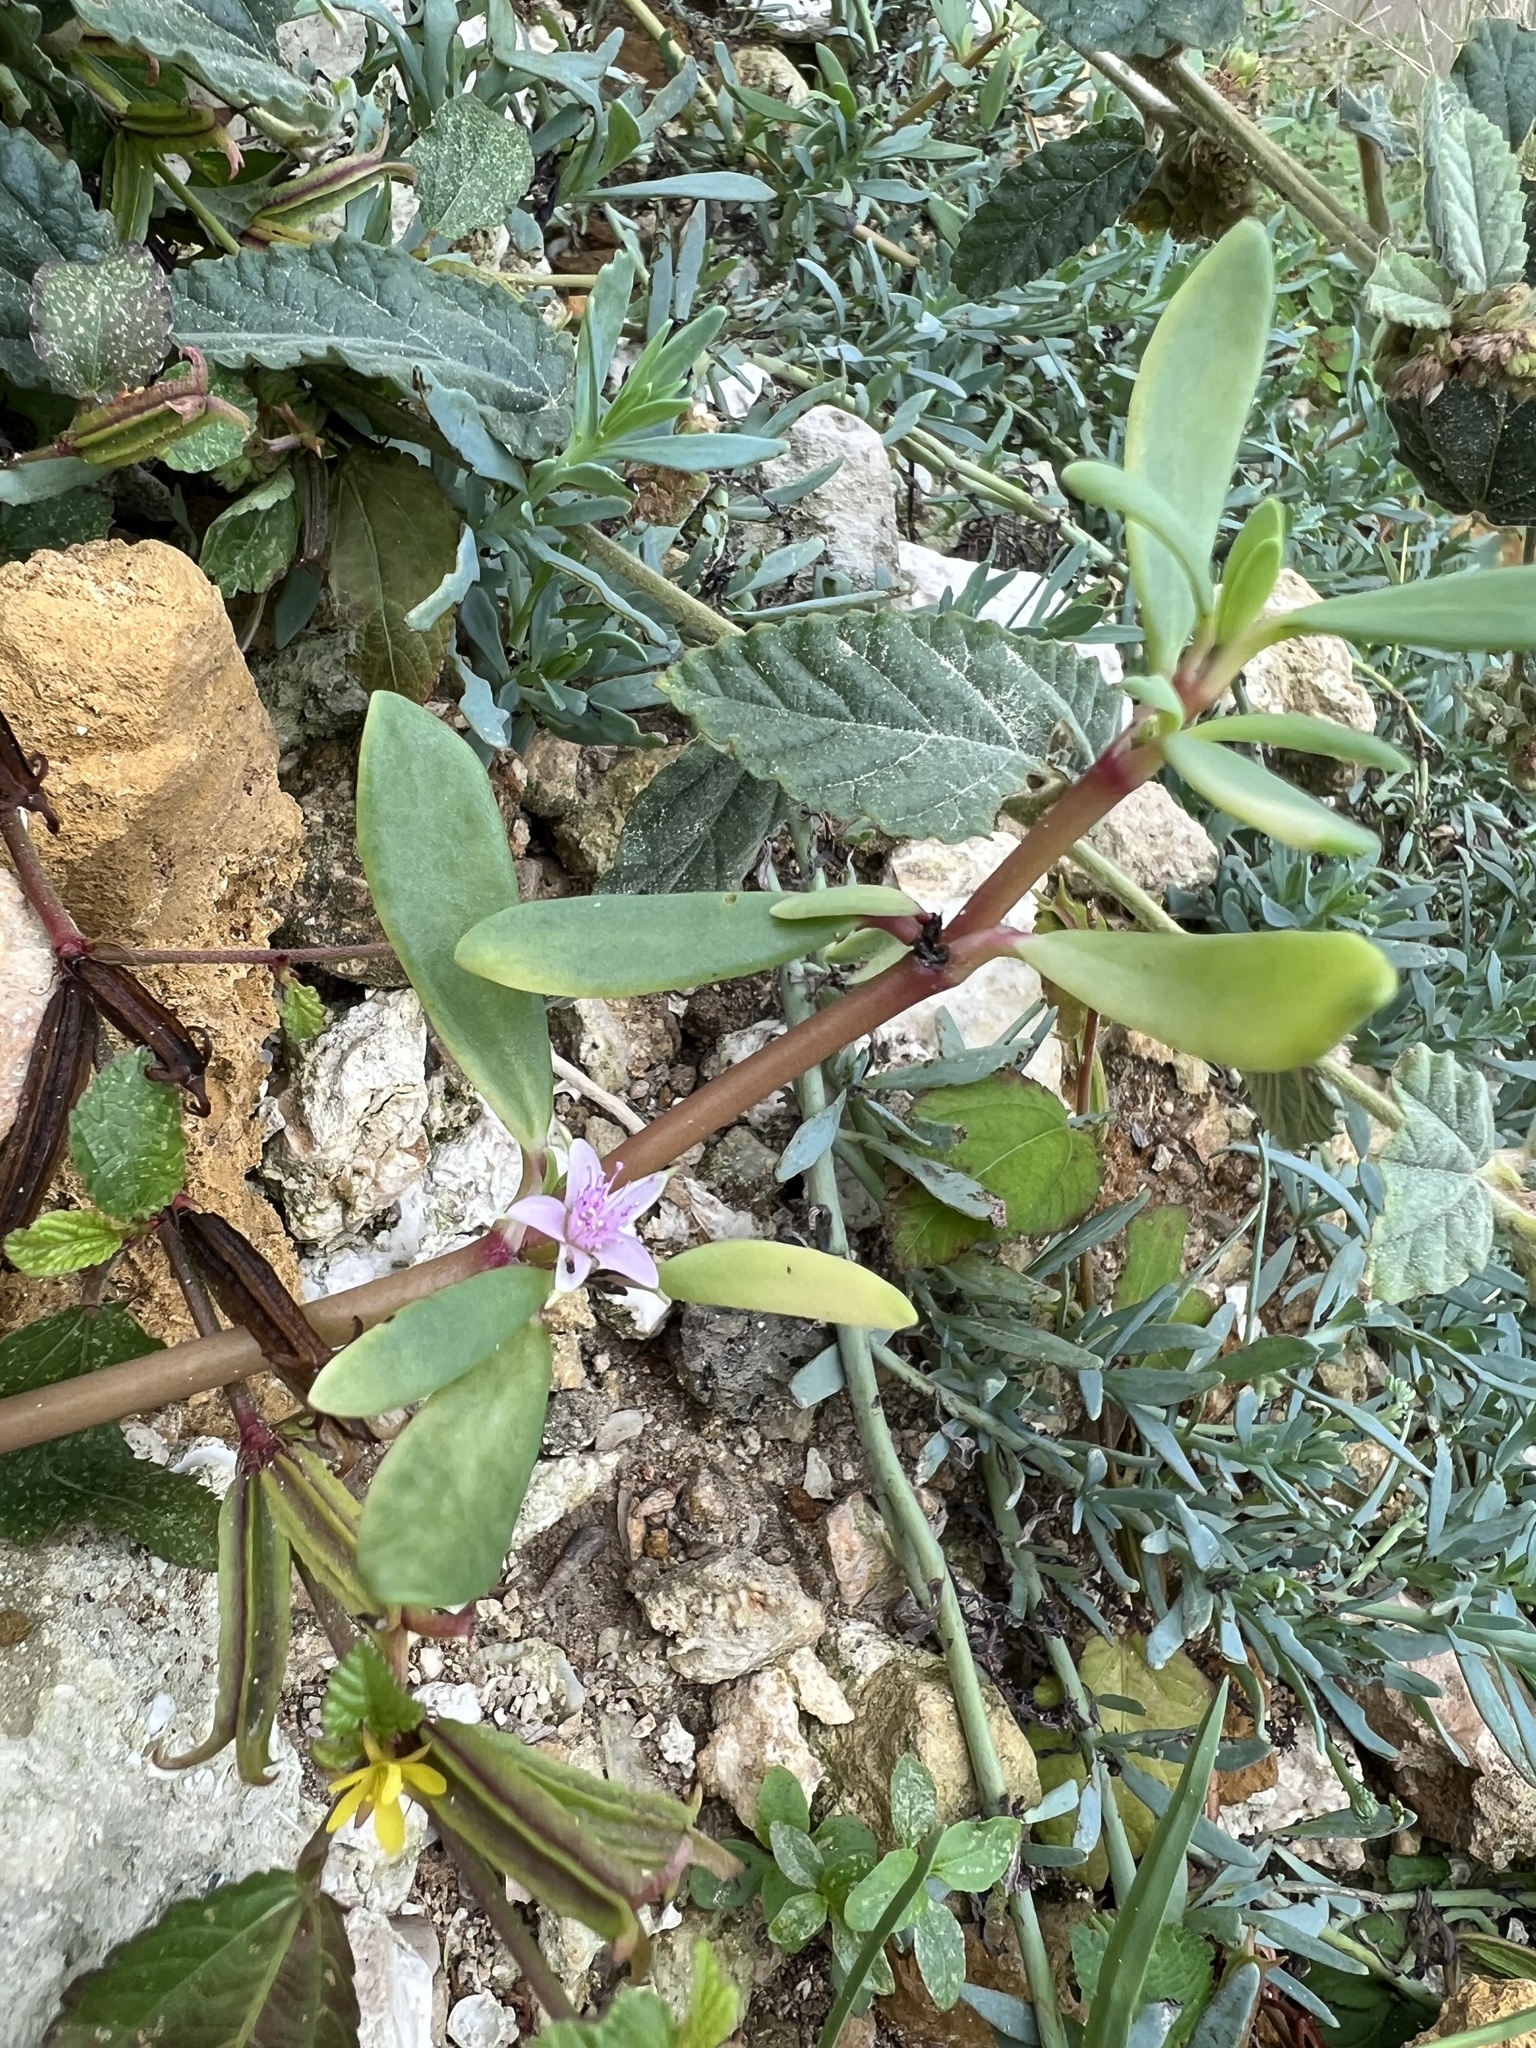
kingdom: Plantae
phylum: Tracheophyta
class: Magnoliopsida
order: Caryophyllales
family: Aizoaceae
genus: Sesuvium
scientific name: Sesuvium portulacastrum
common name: Sea-purslane
